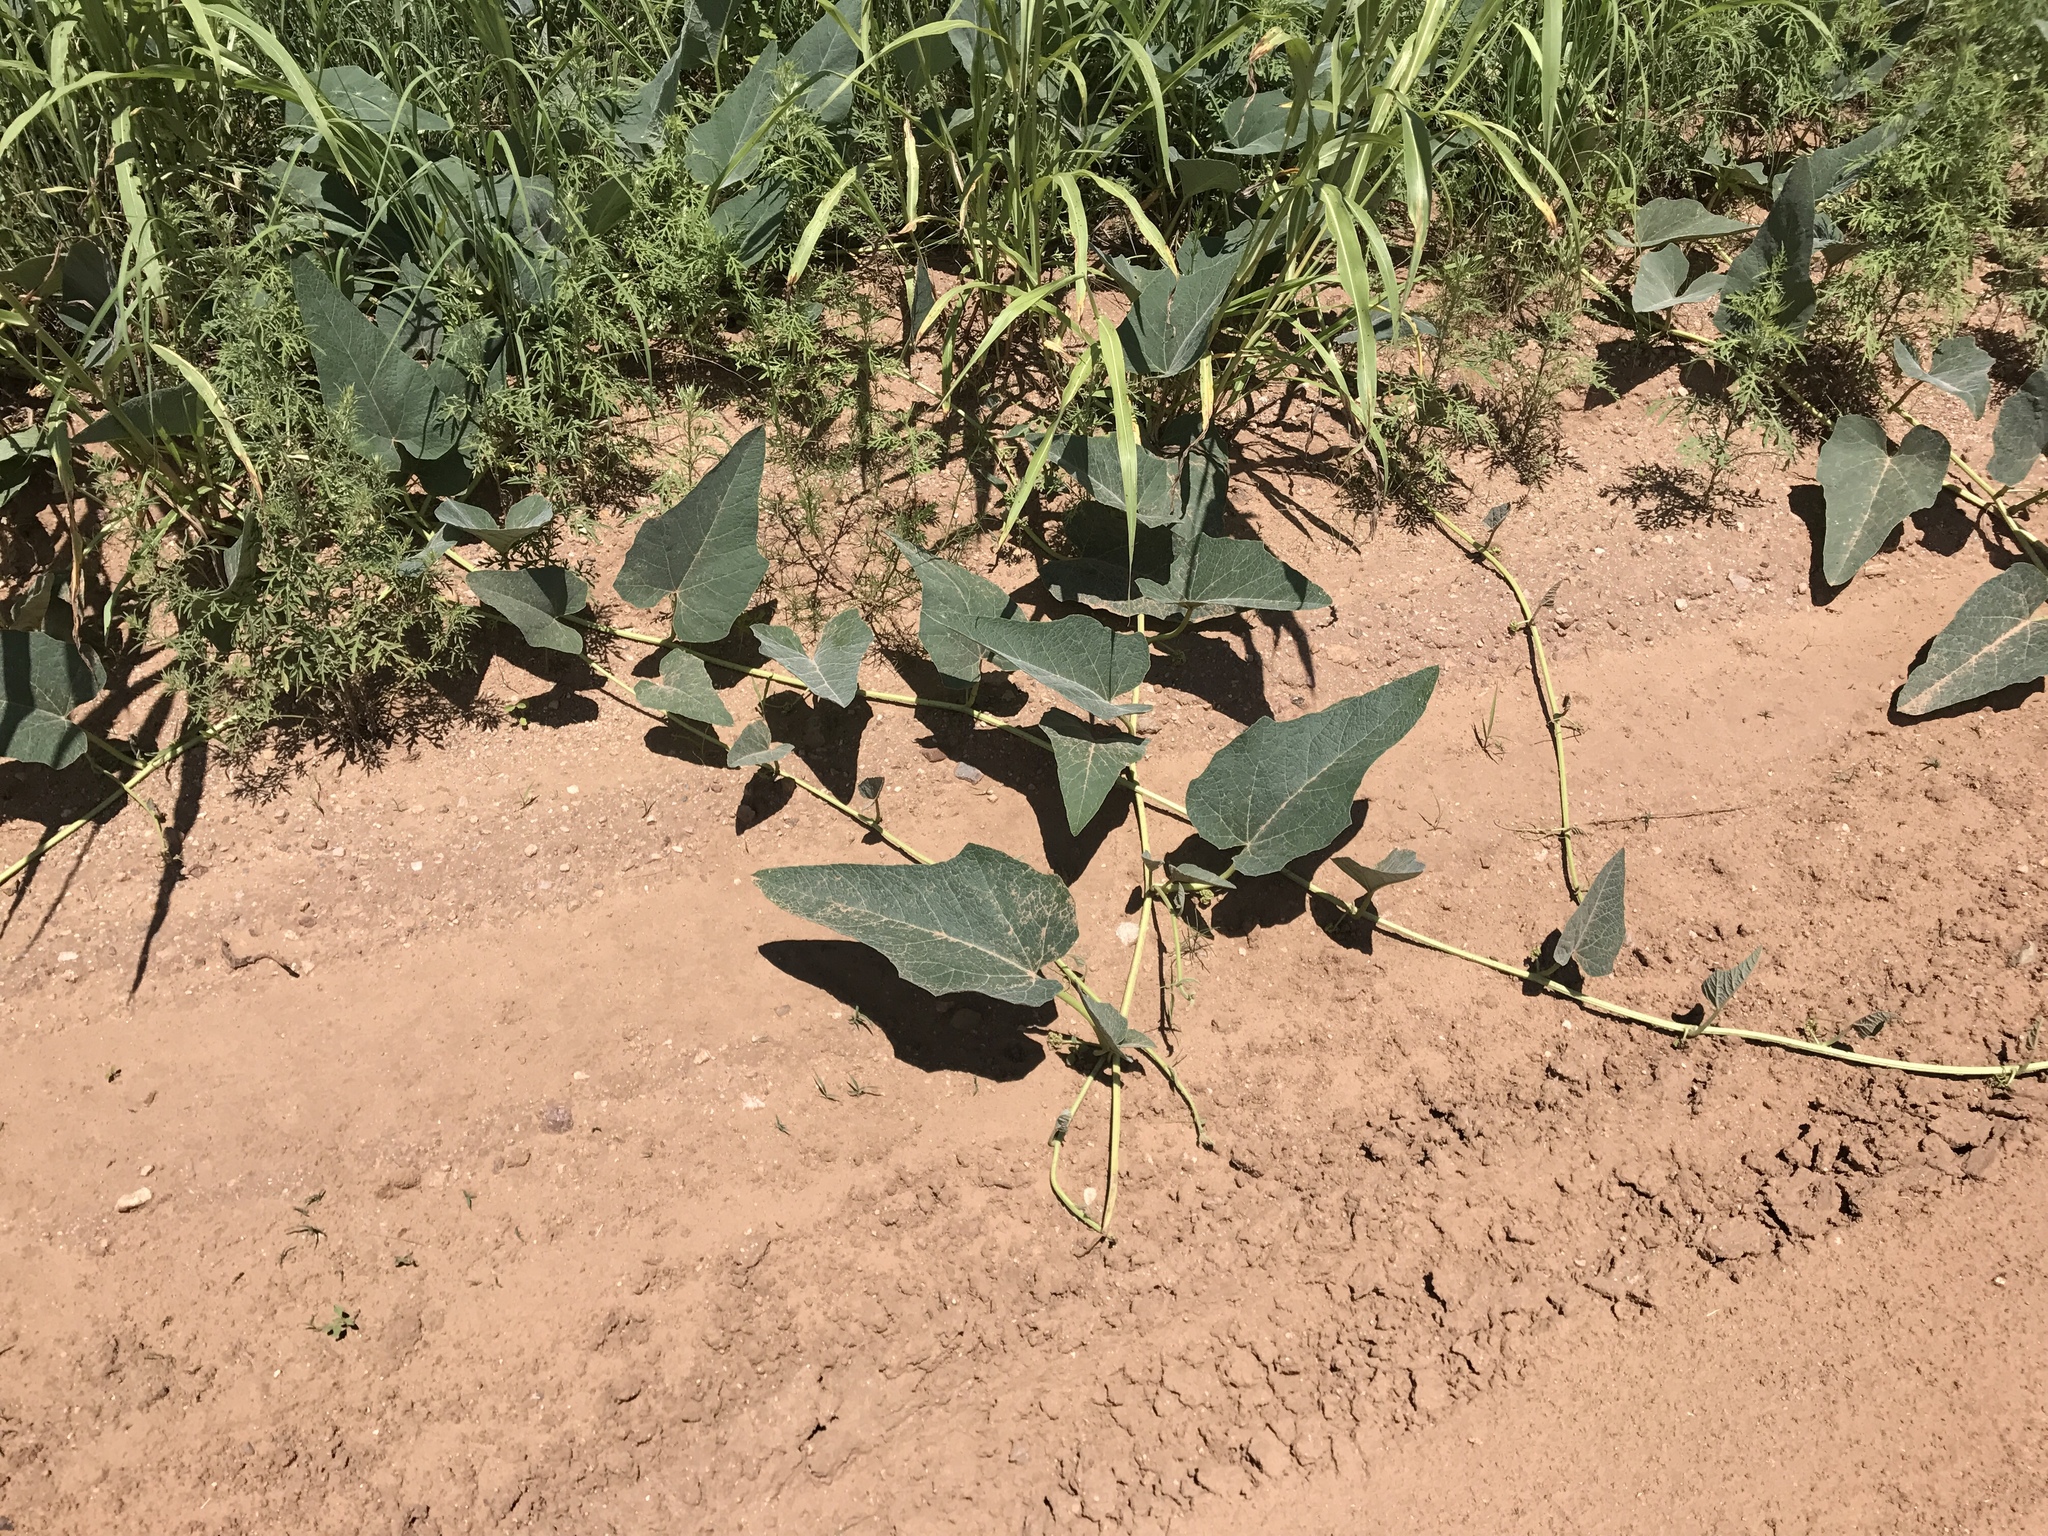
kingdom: Plantae
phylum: Tracheophyta
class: Magnoliopsida
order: Cucurbitales
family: Cucurbitaceae
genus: Cucurbita
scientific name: Cucurbita foetidissima
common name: Buffalo gourd
